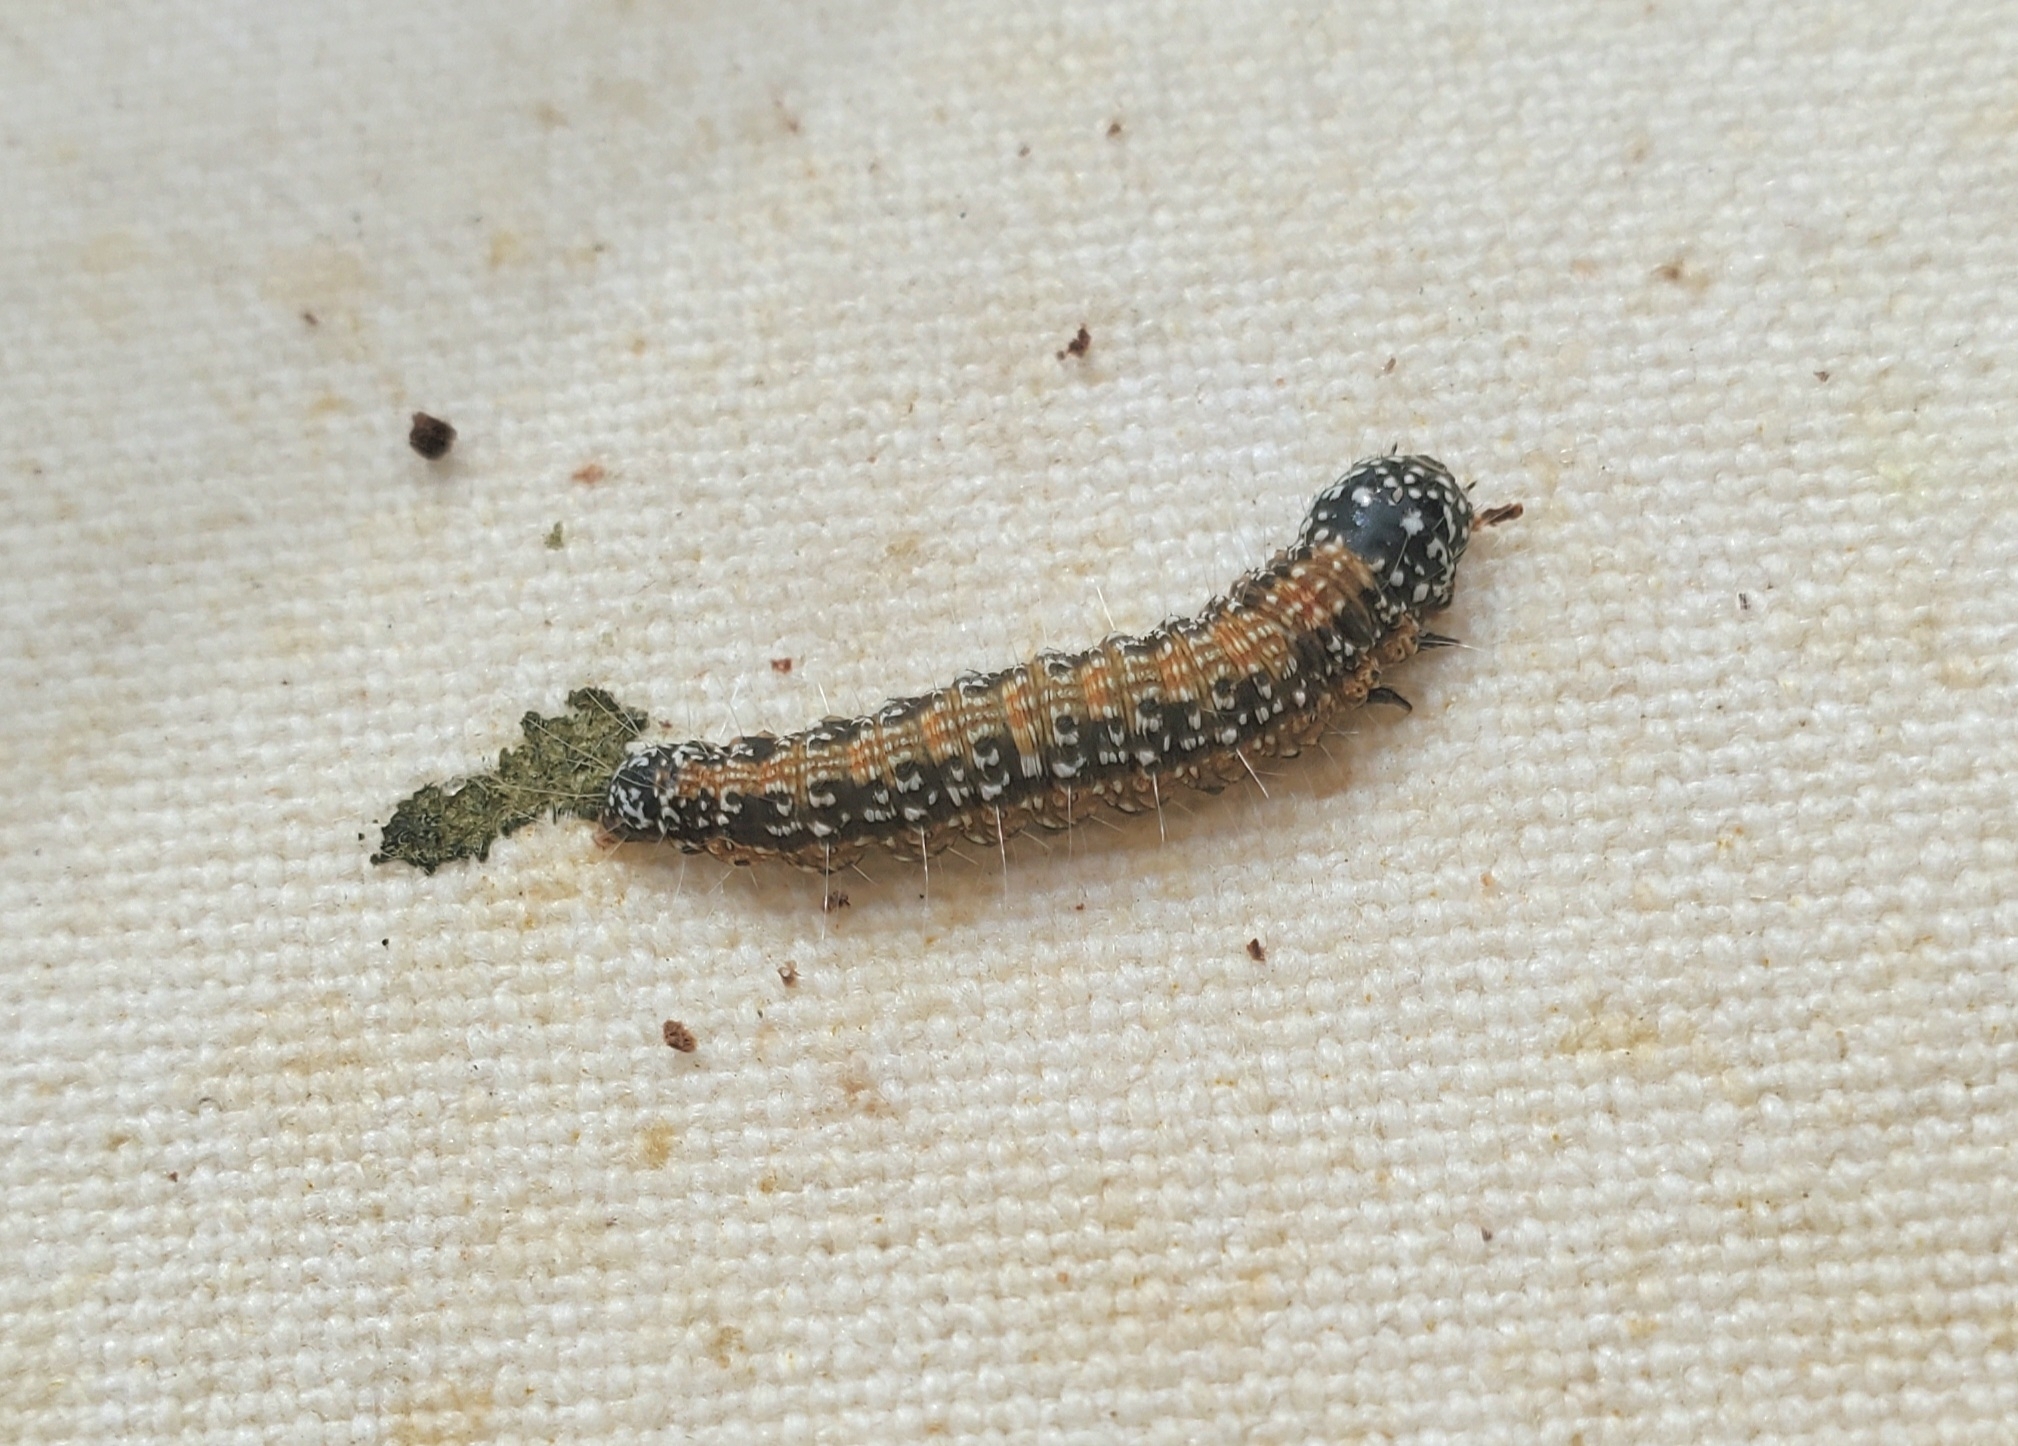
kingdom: Animalia
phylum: Arthropoda
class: Insecta
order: Lepidoptera
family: Pyralidae
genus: Omphalocera
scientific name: Omphalocera munroei
